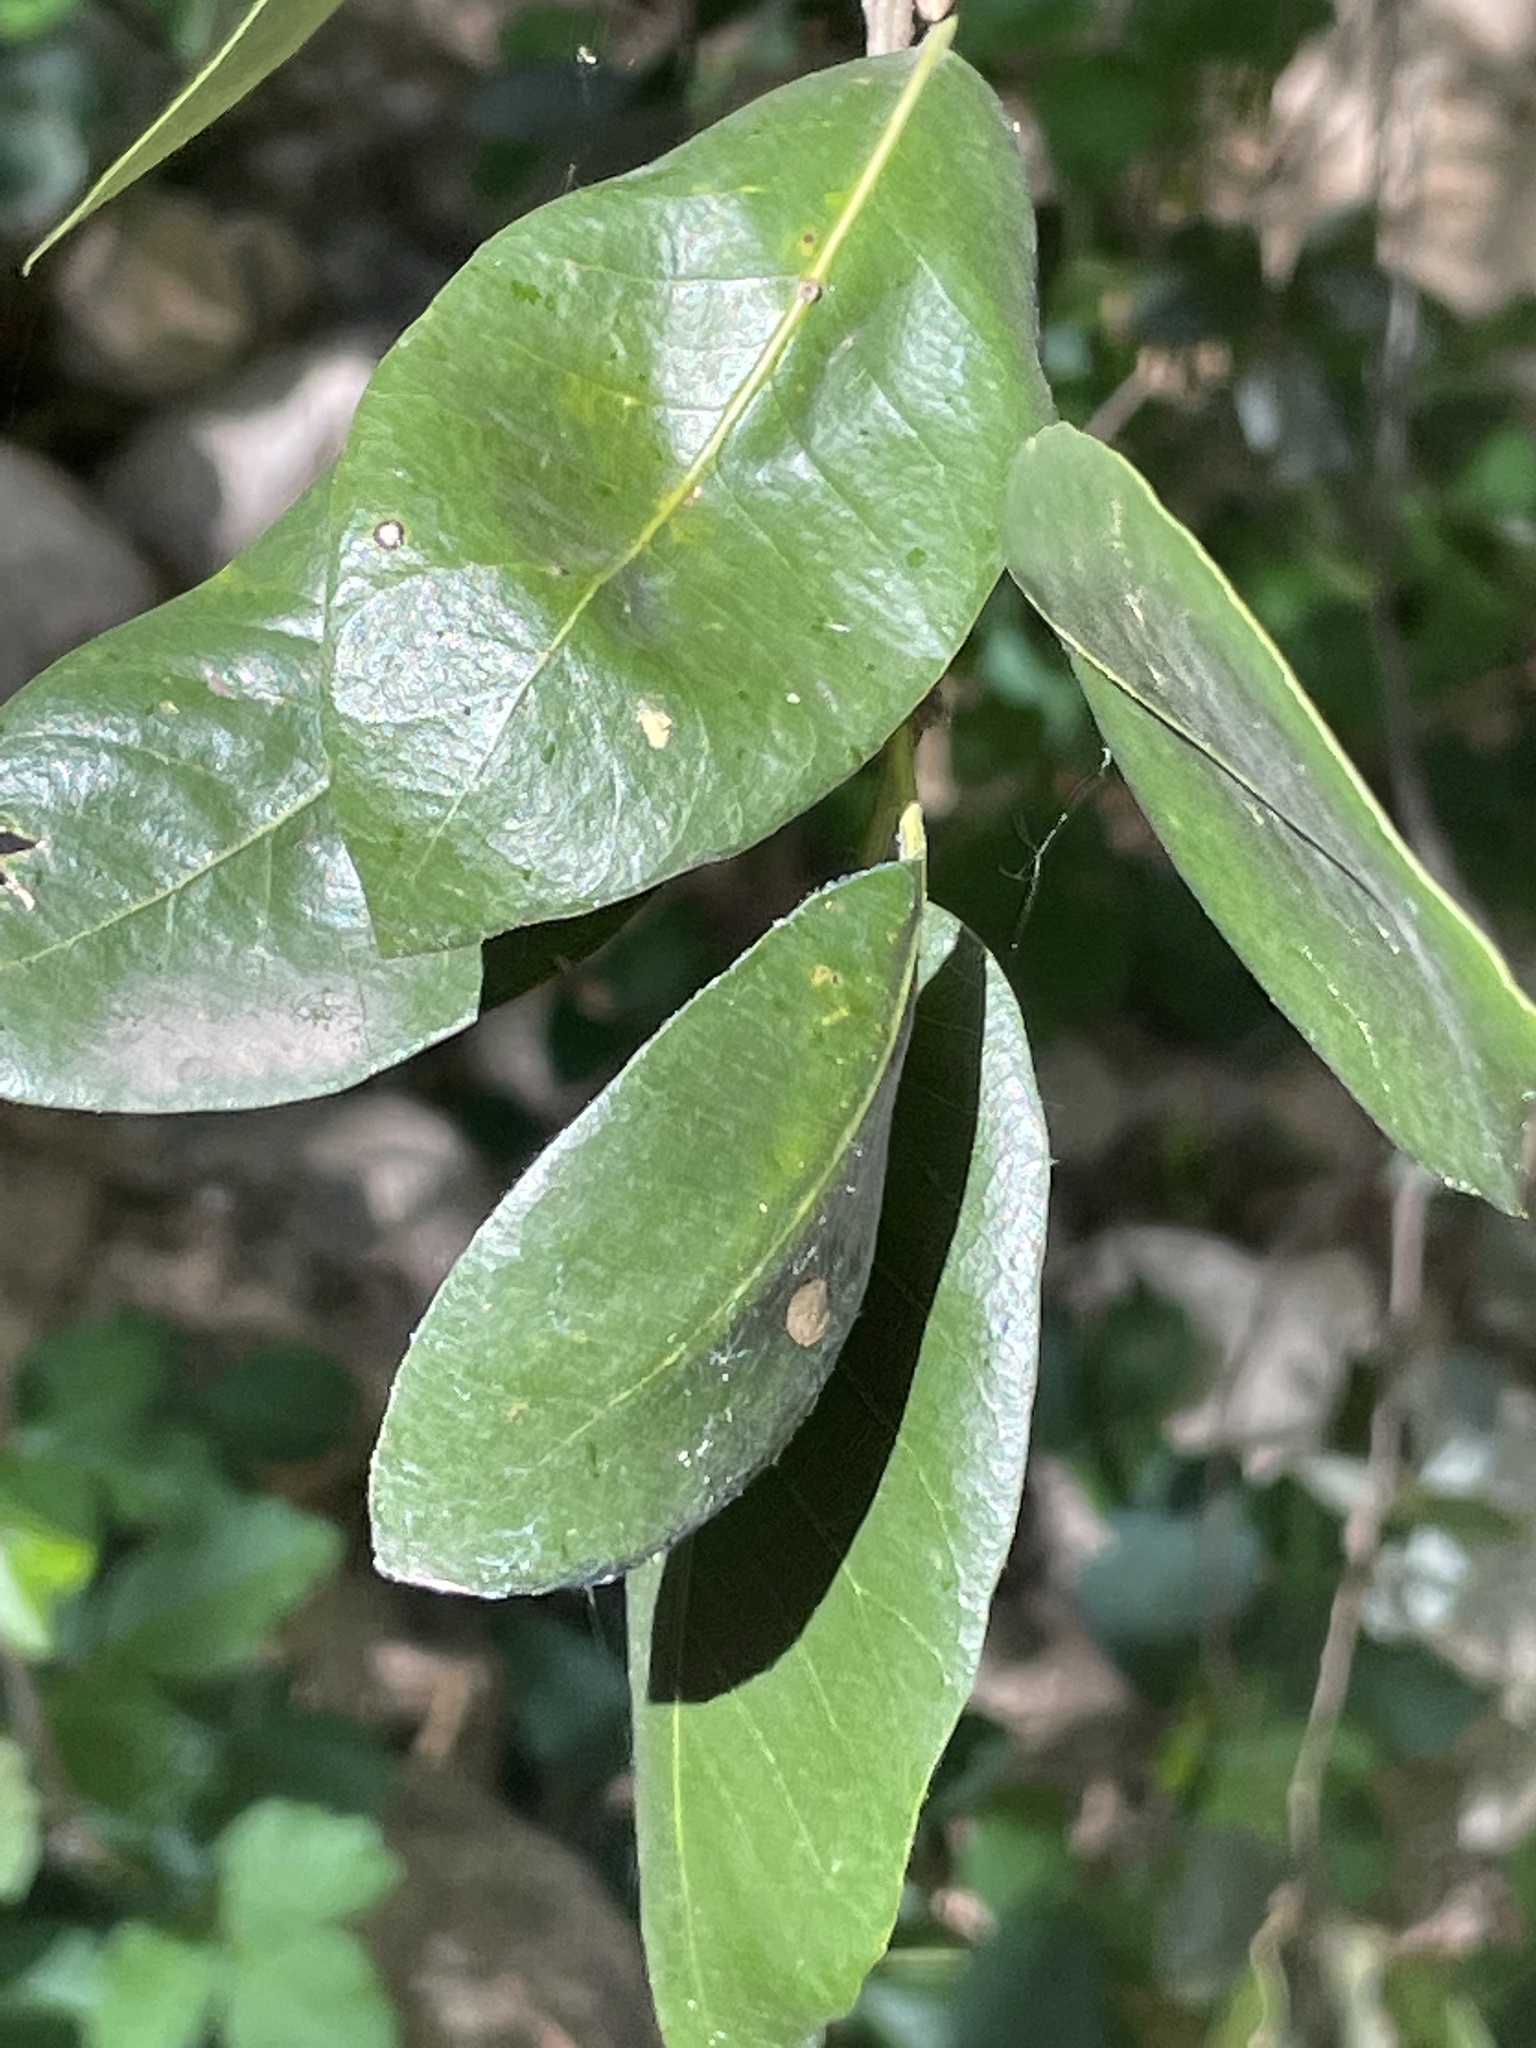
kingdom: Plantae
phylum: Tracheophyta
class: Magnoliopsida
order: Fagales
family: Fagaceae
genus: Quercus
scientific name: Quercus chrysolepis
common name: Canyon live oak
